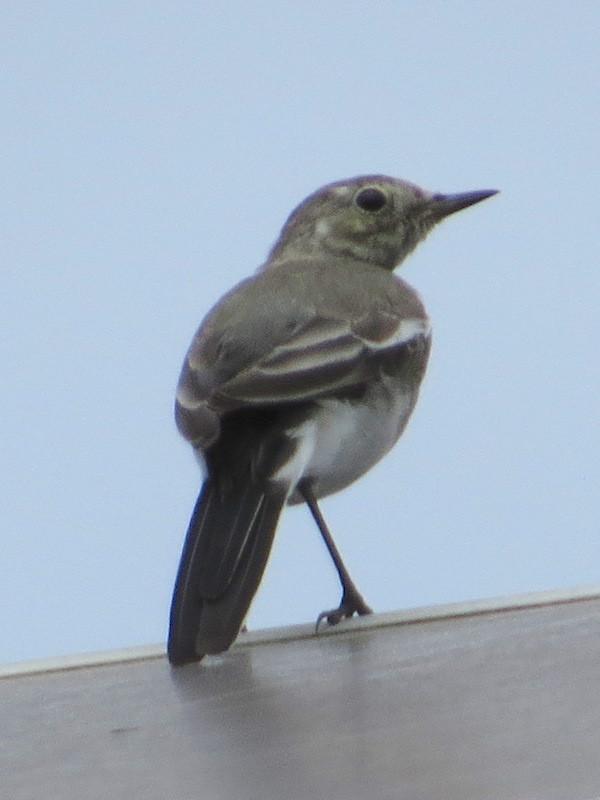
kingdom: Animalia
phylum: Chordata
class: Aves
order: Passeriformes
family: Motacillidae
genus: Motacilla
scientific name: Motacilla alba
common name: White wagtail
